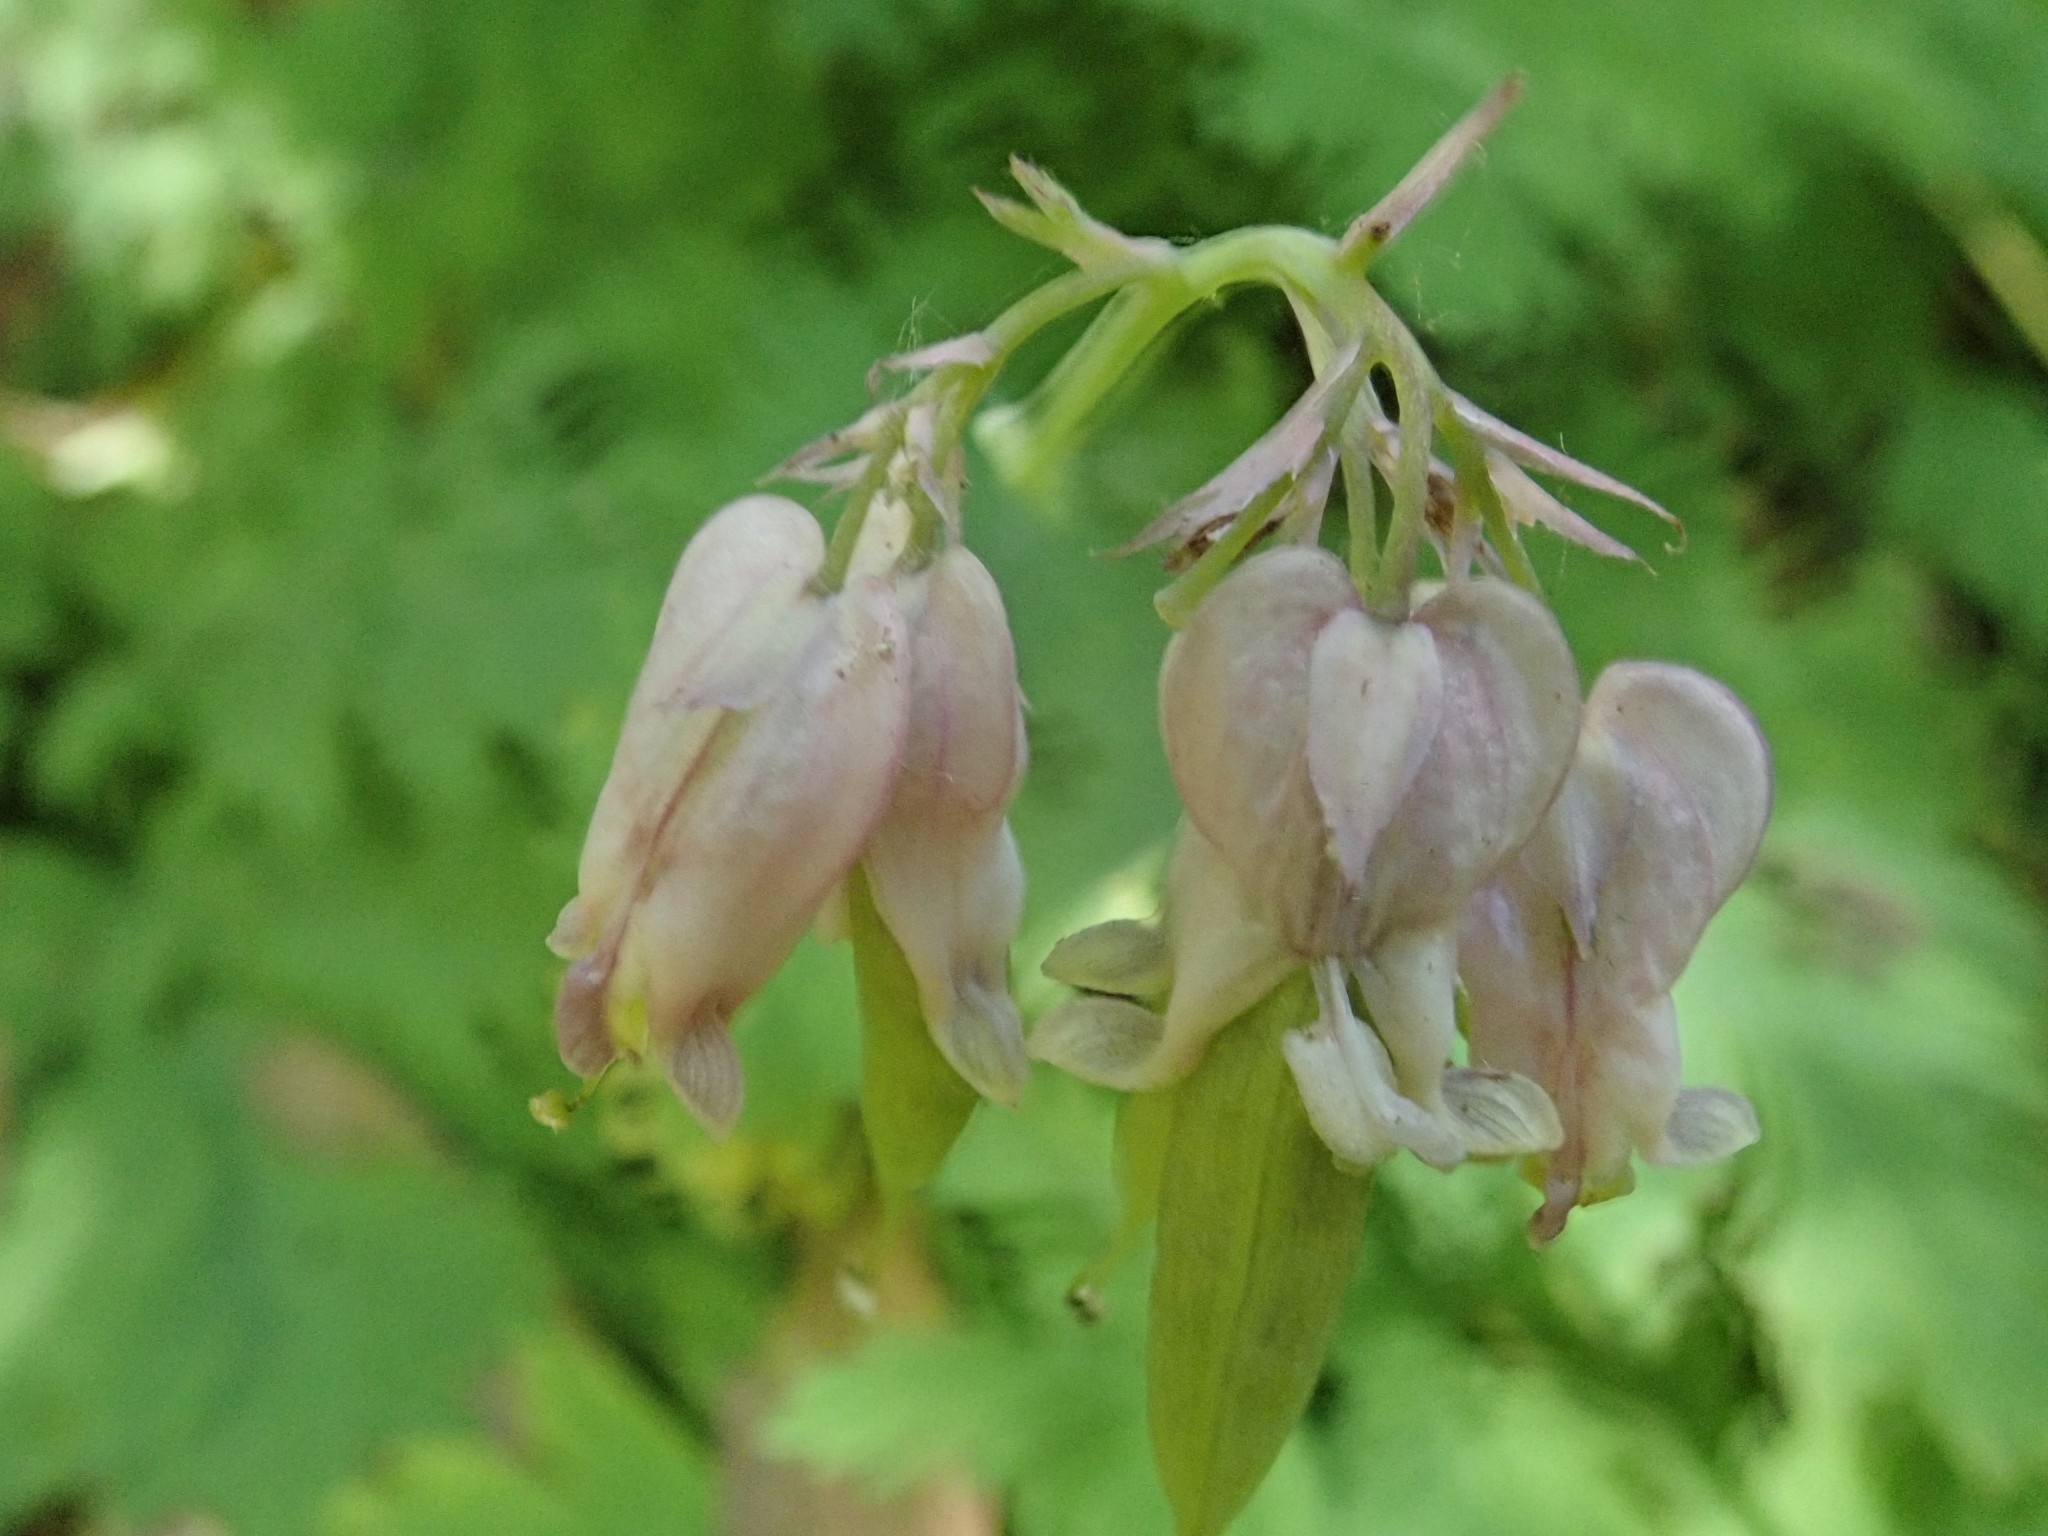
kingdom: Plantae
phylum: Tracheophyta
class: Magnoliopsida
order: Ranunculales
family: Papaveraceae
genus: Dicentra
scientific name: Dicentra formosa
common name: Bleeding-heart
